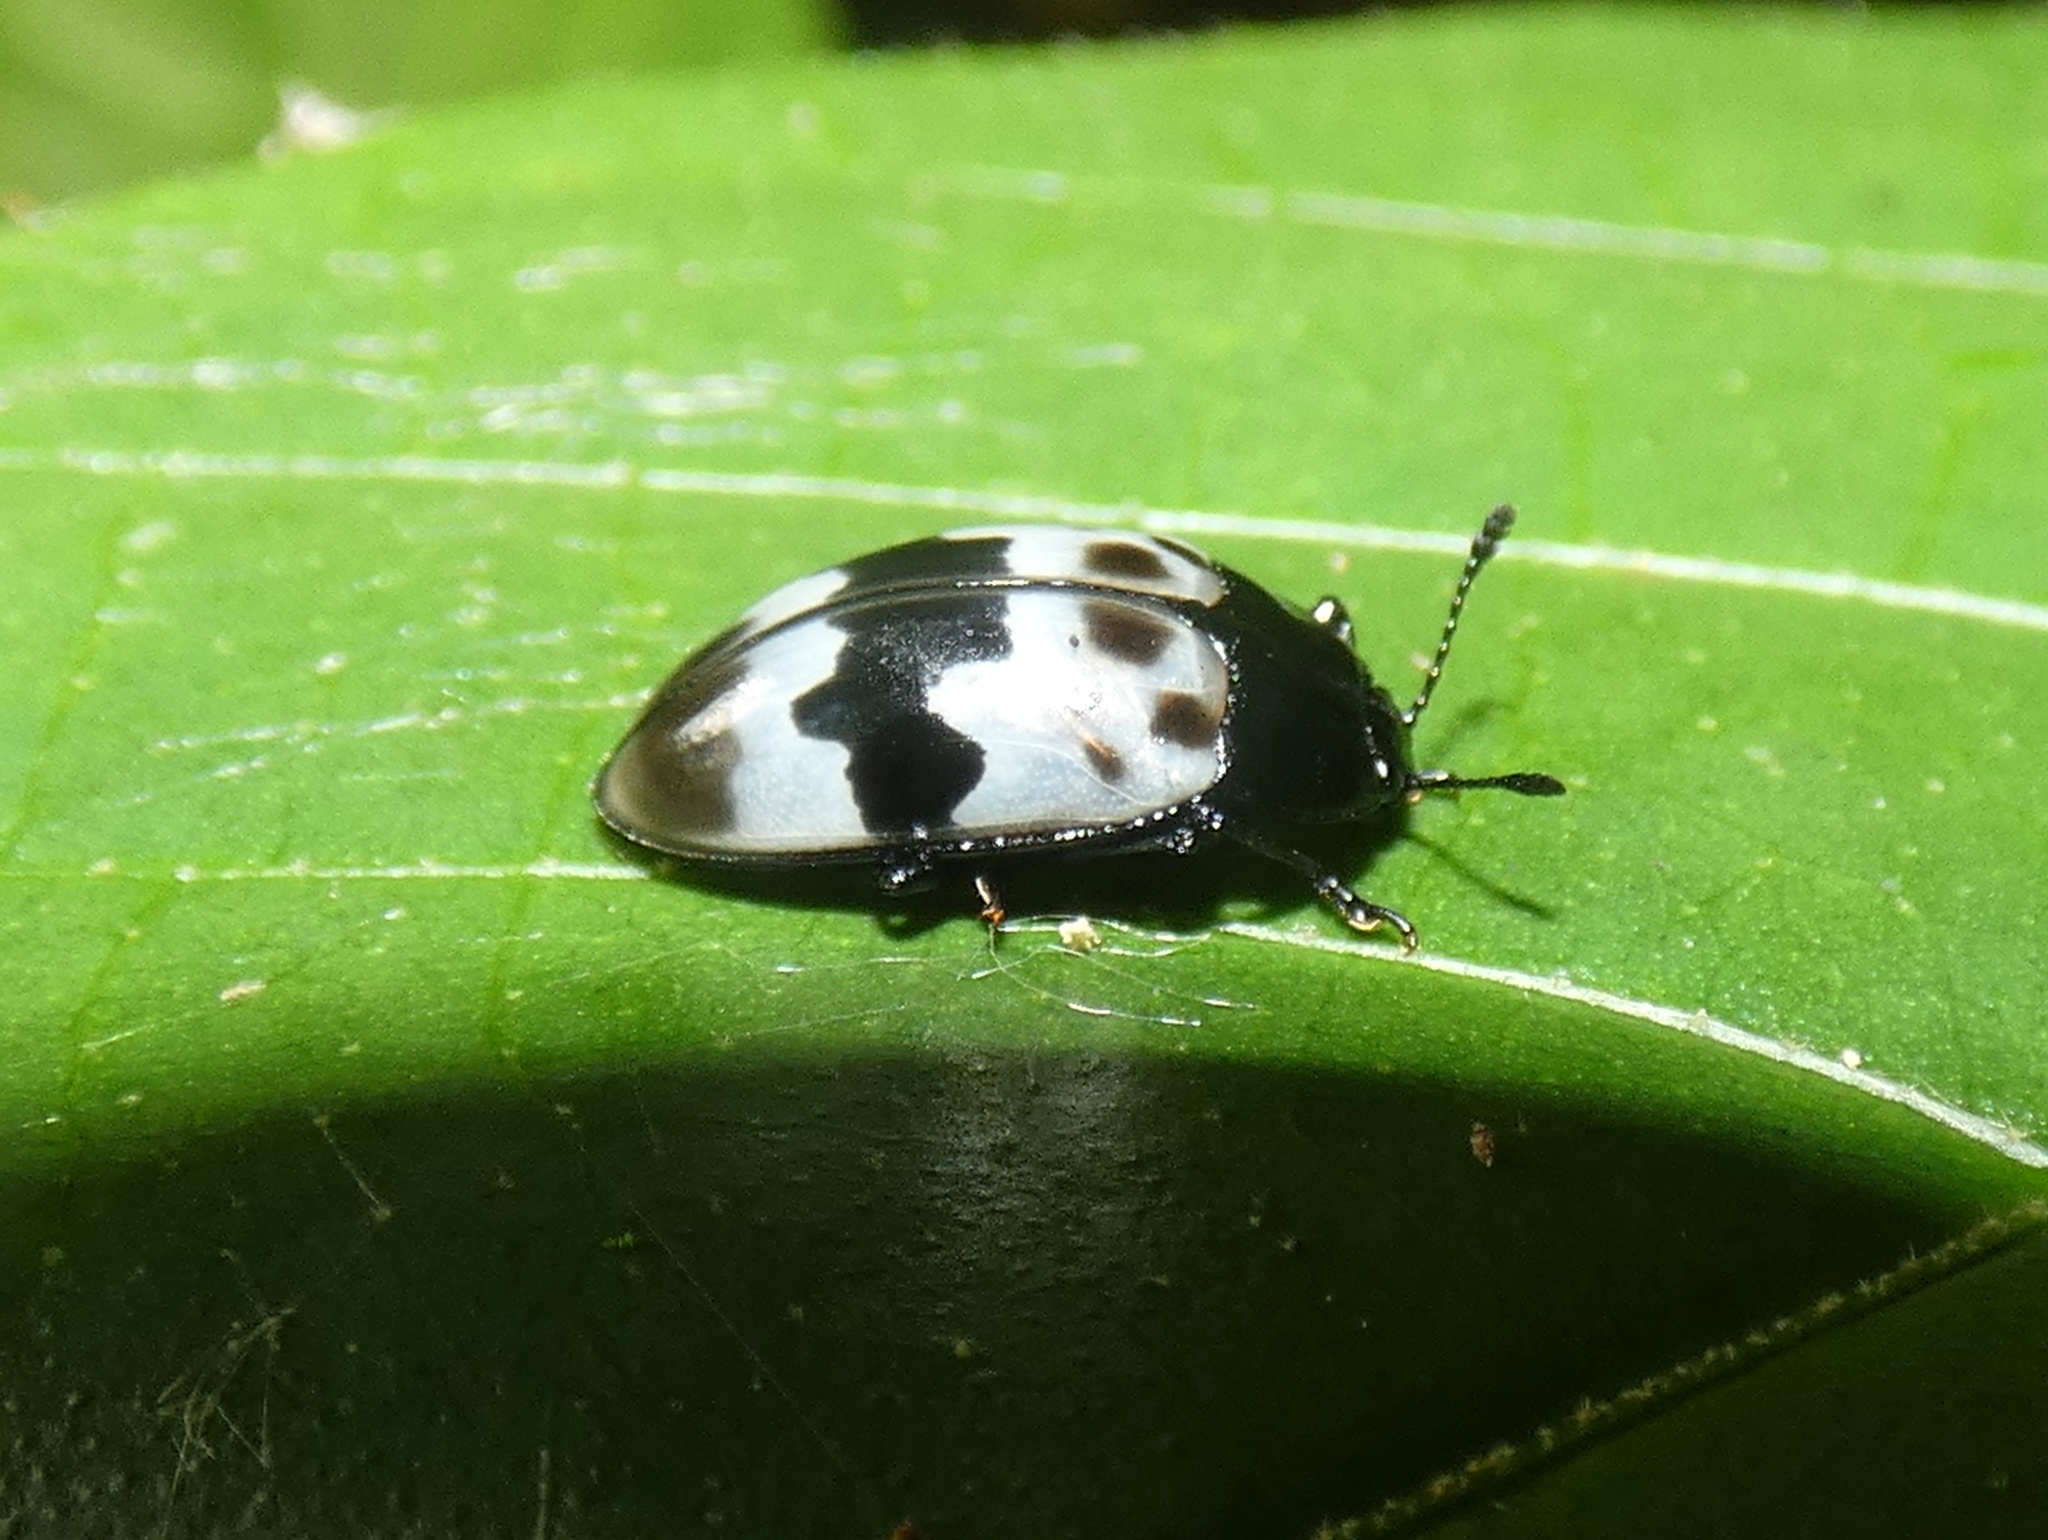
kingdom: Animalia
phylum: Arthropoda
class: Insecta
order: Coleoptera
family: Erotylidae
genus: Prepopharus
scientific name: Prepopharus eduardoi
